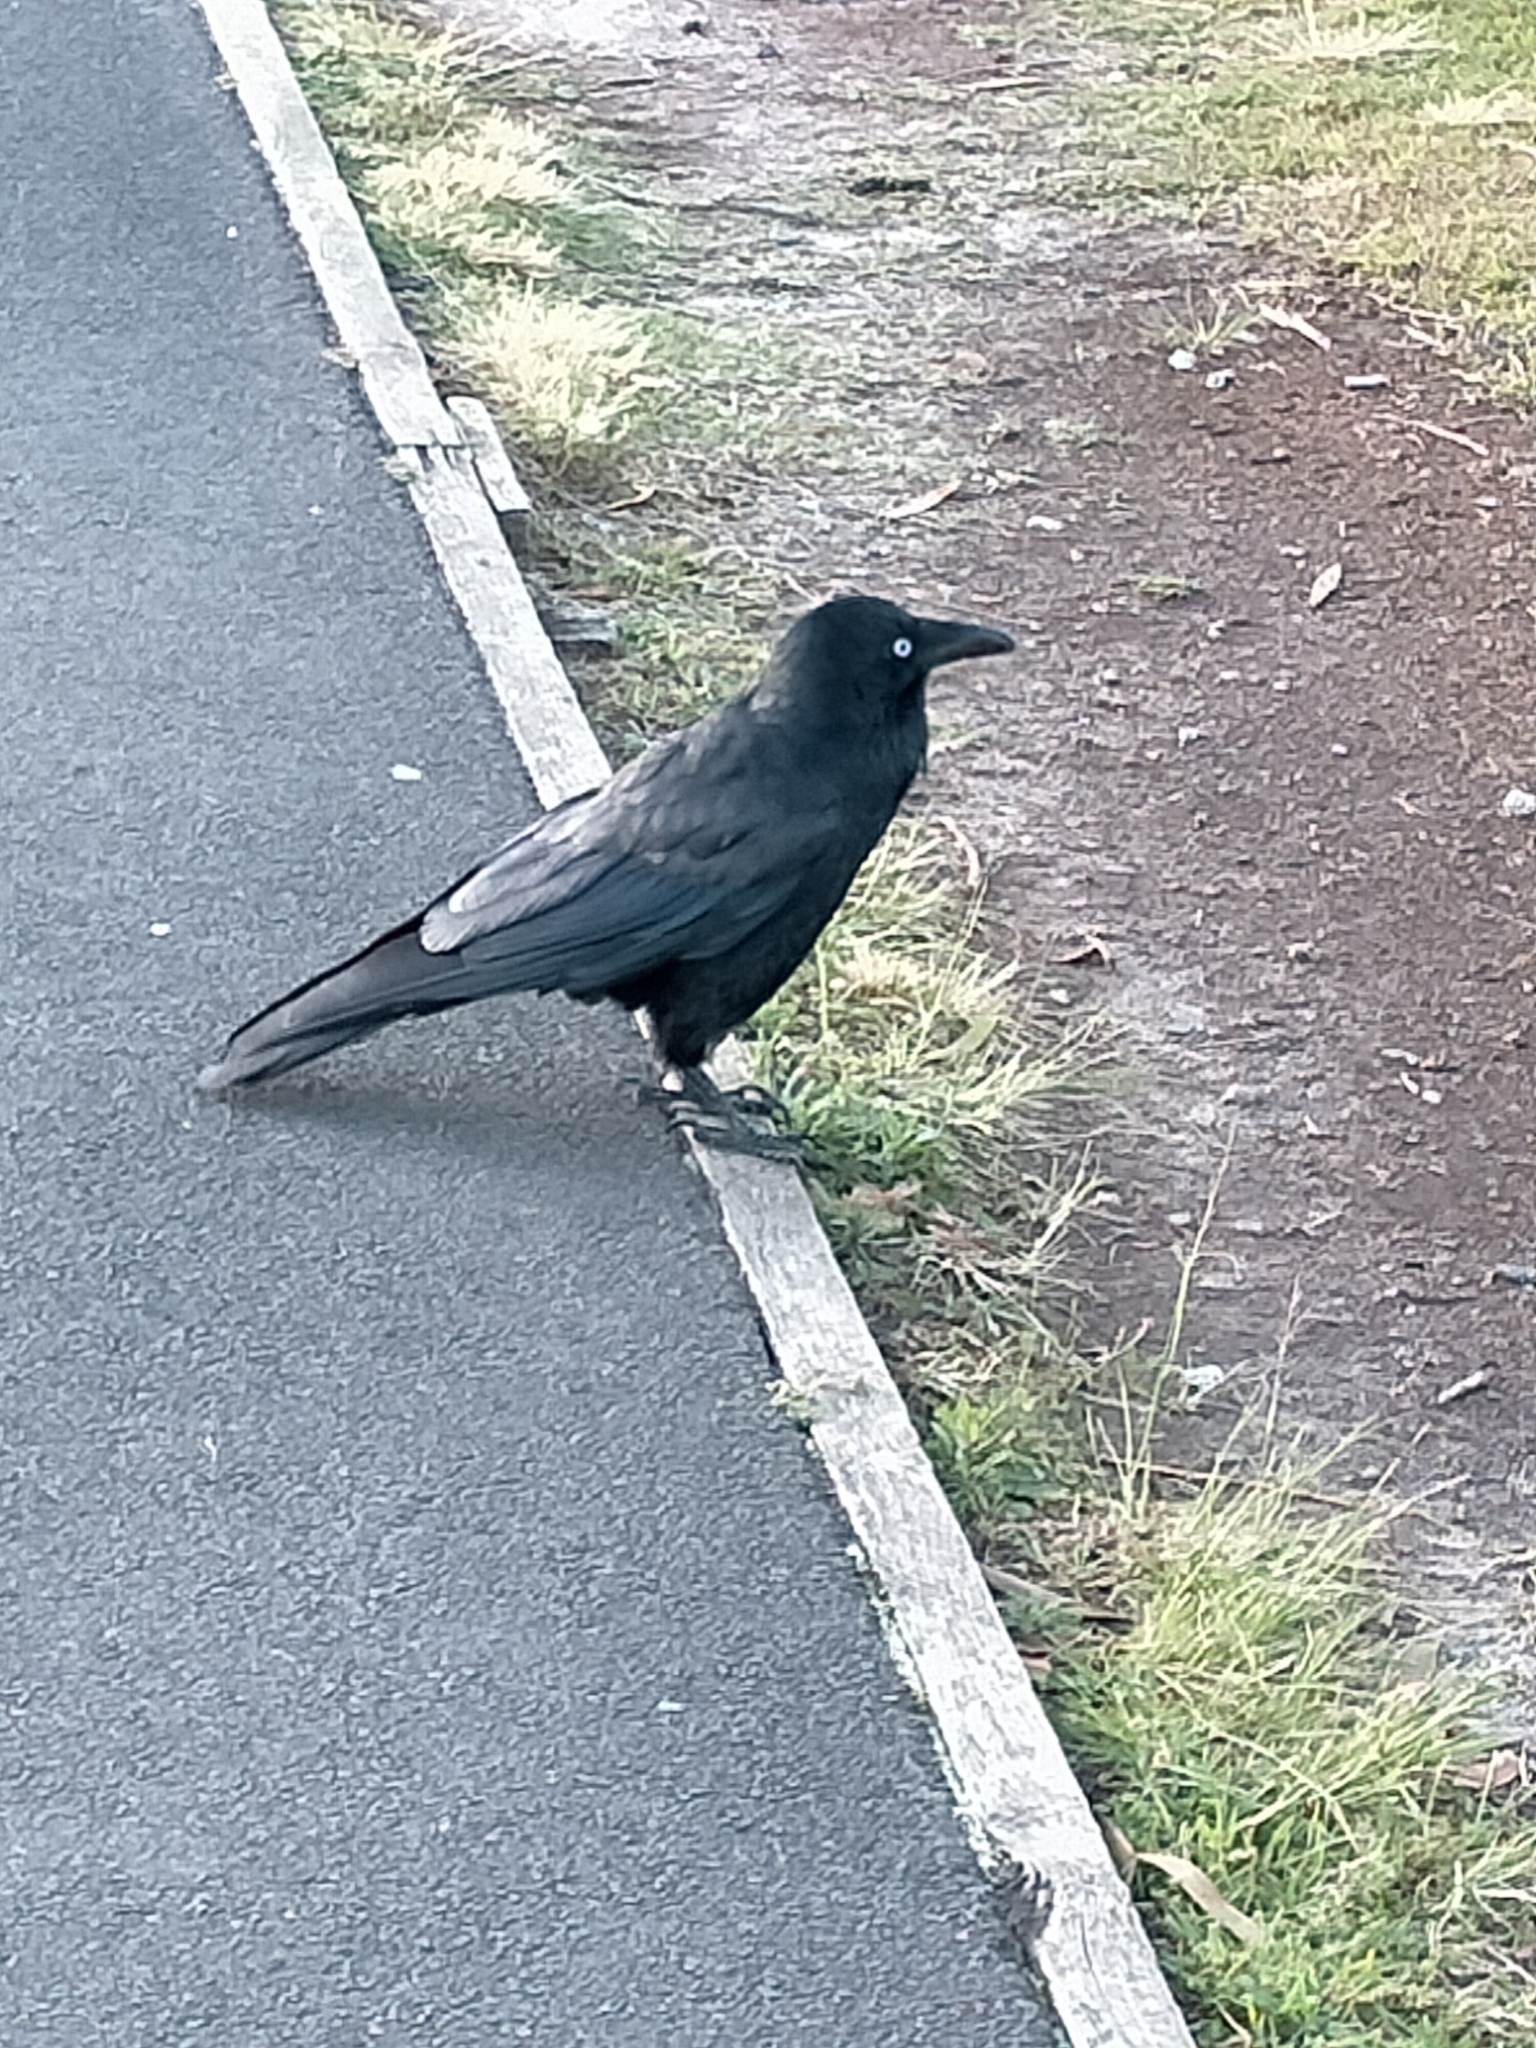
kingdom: Animalia
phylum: Chordata
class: Aves
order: Passeriformes
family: Corvidae
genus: Corvus
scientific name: Corvus coronoides
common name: Australian raven
